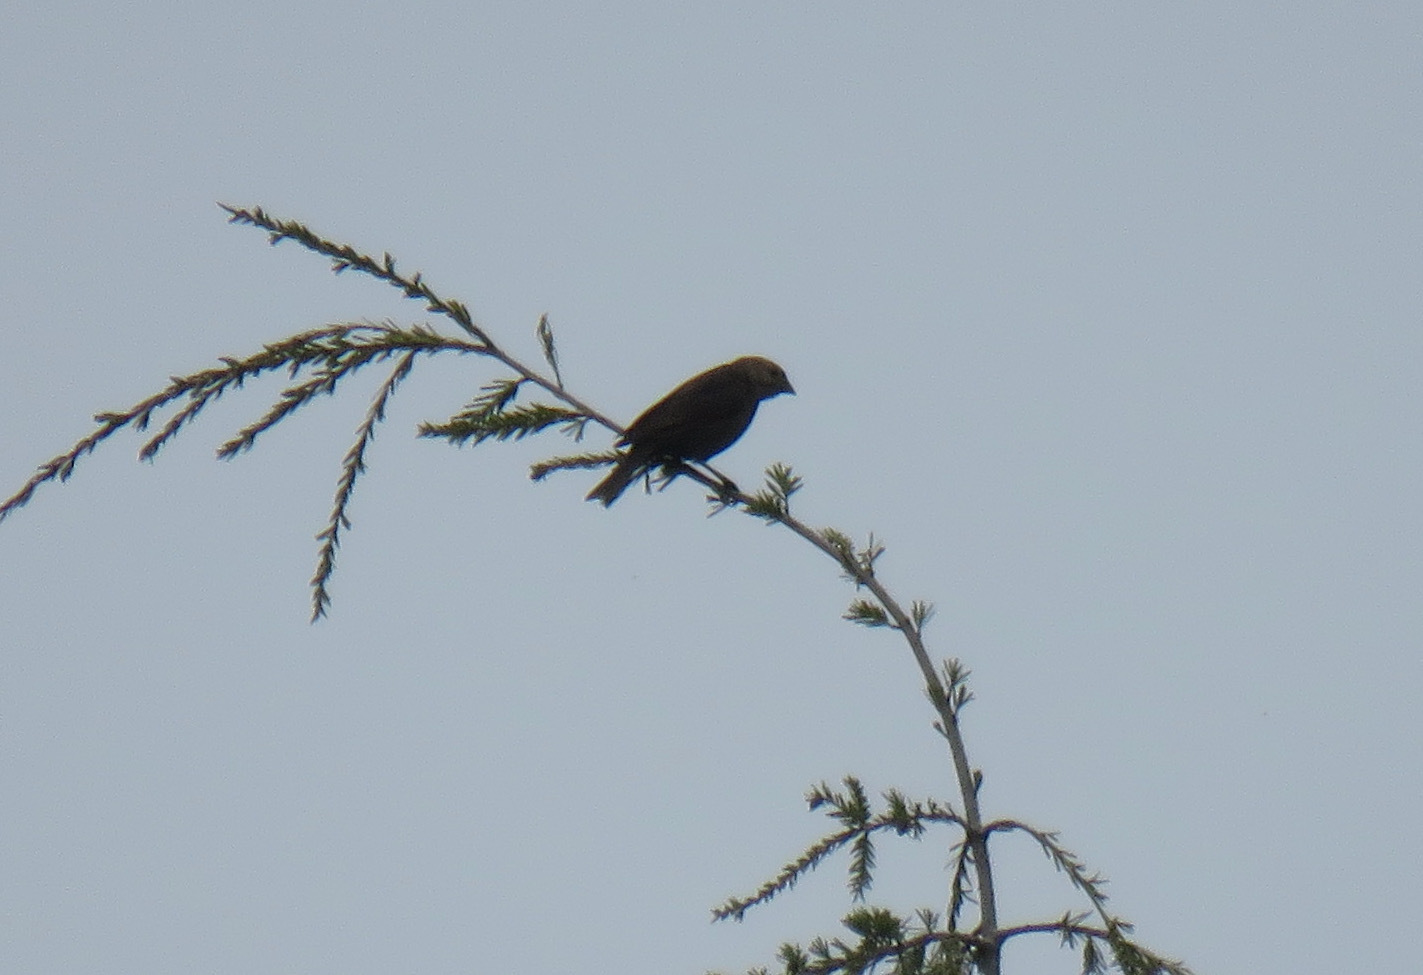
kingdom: Animalia
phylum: Chordata
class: Aves
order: Passeriformes
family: Icteridae
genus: Molothrus
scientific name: Molothrus ater
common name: Brown-headed cowbird
